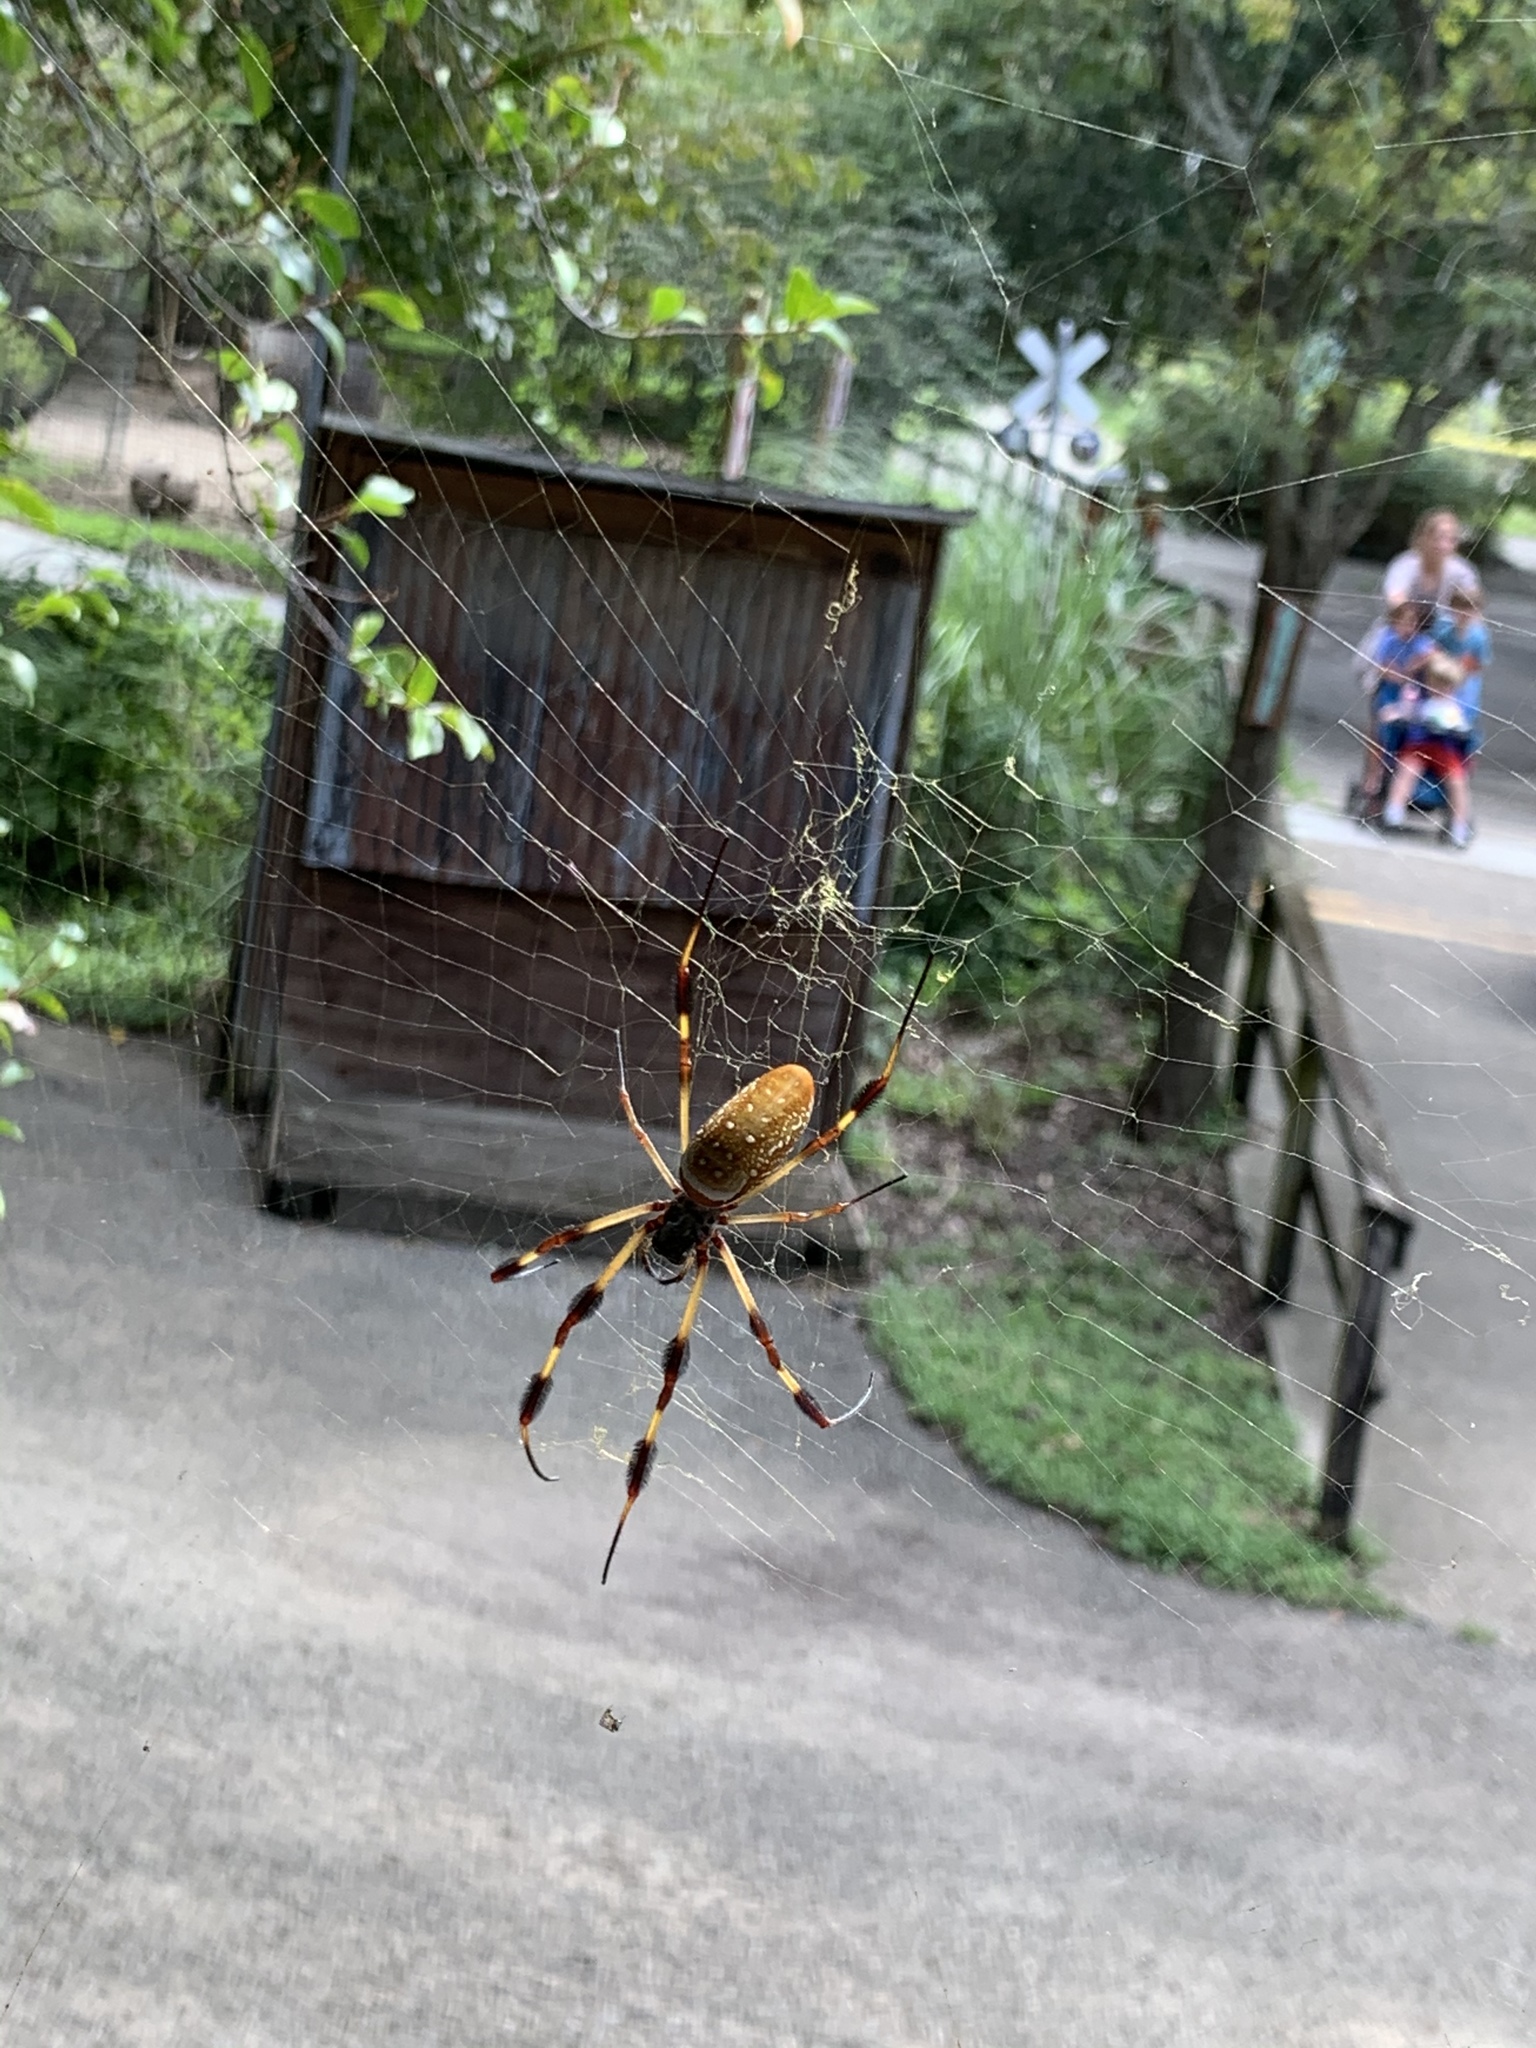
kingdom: Animalia
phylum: Arthropoda
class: Arachnida
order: Araneae
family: Araneidae
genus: Trichonephila
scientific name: Trichonephila clavipes
